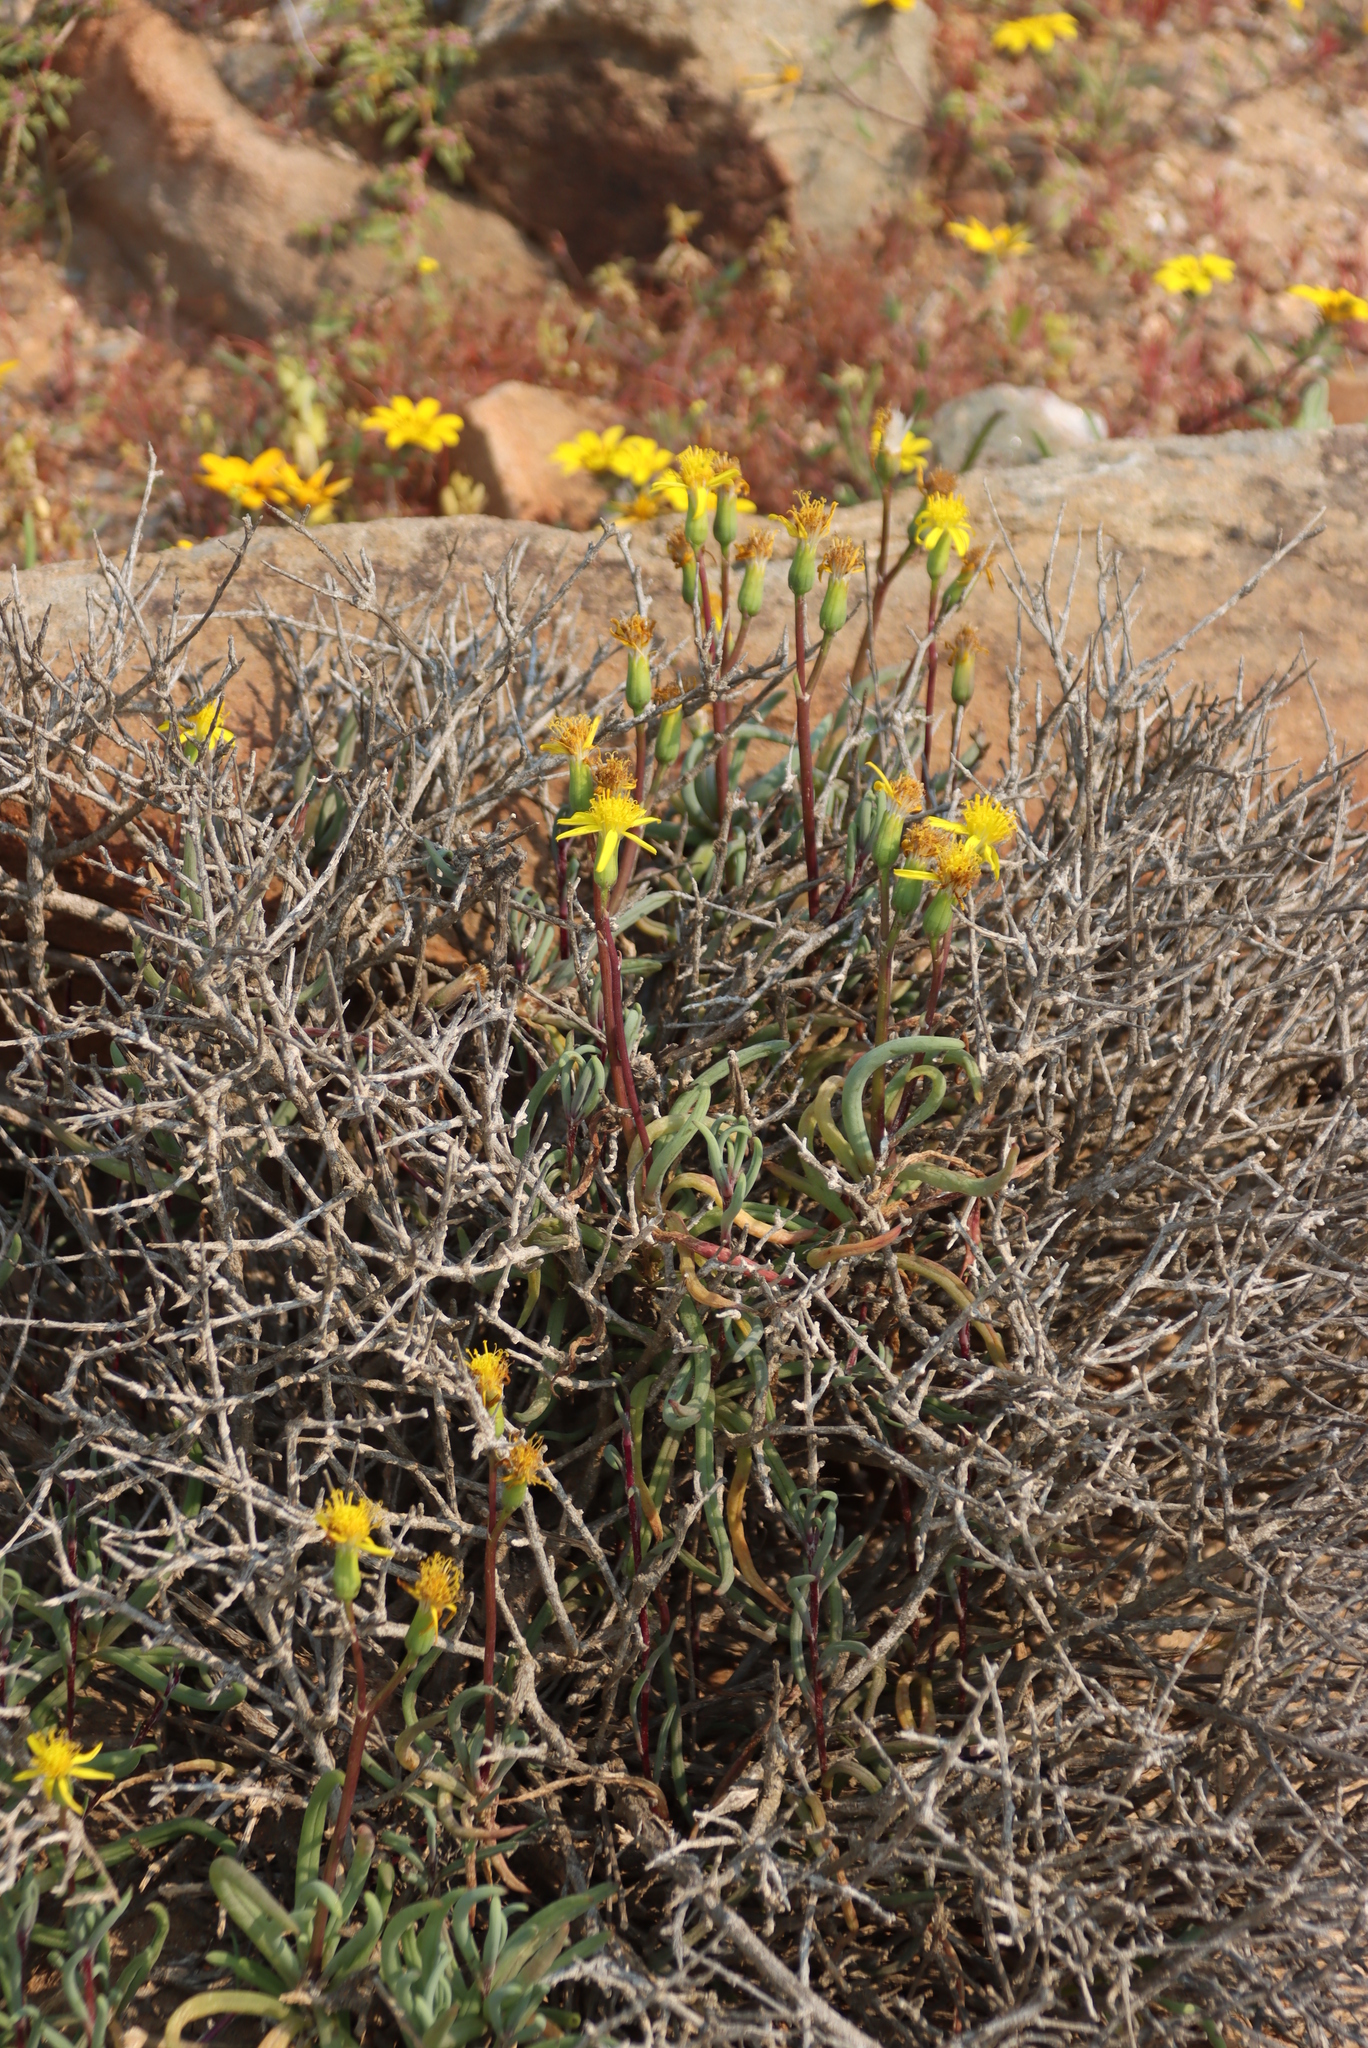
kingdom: Plantae
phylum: Tracheophyta
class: Magnoliopsida
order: Asterales
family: Asteraceae
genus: Senecio
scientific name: Senecio alooides
